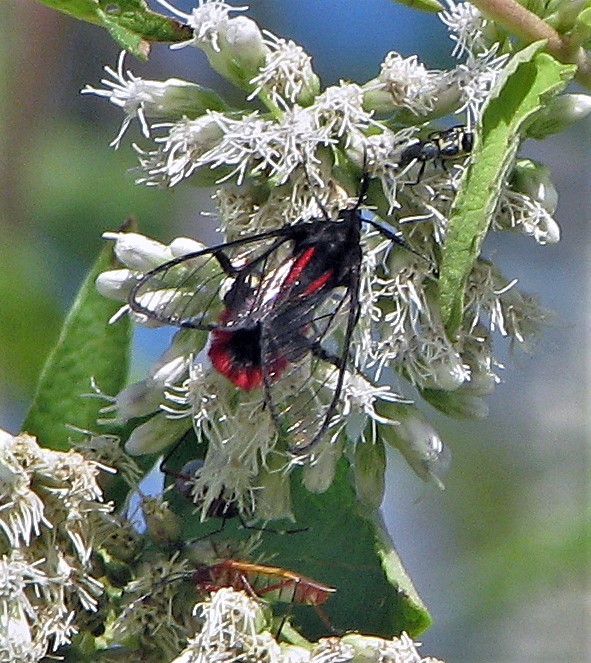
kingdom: Animalia
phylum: Arthropoda
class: Insecta
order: Lepidoptera
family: Erebidae
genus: Dinia
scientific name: Dinia eagrus
